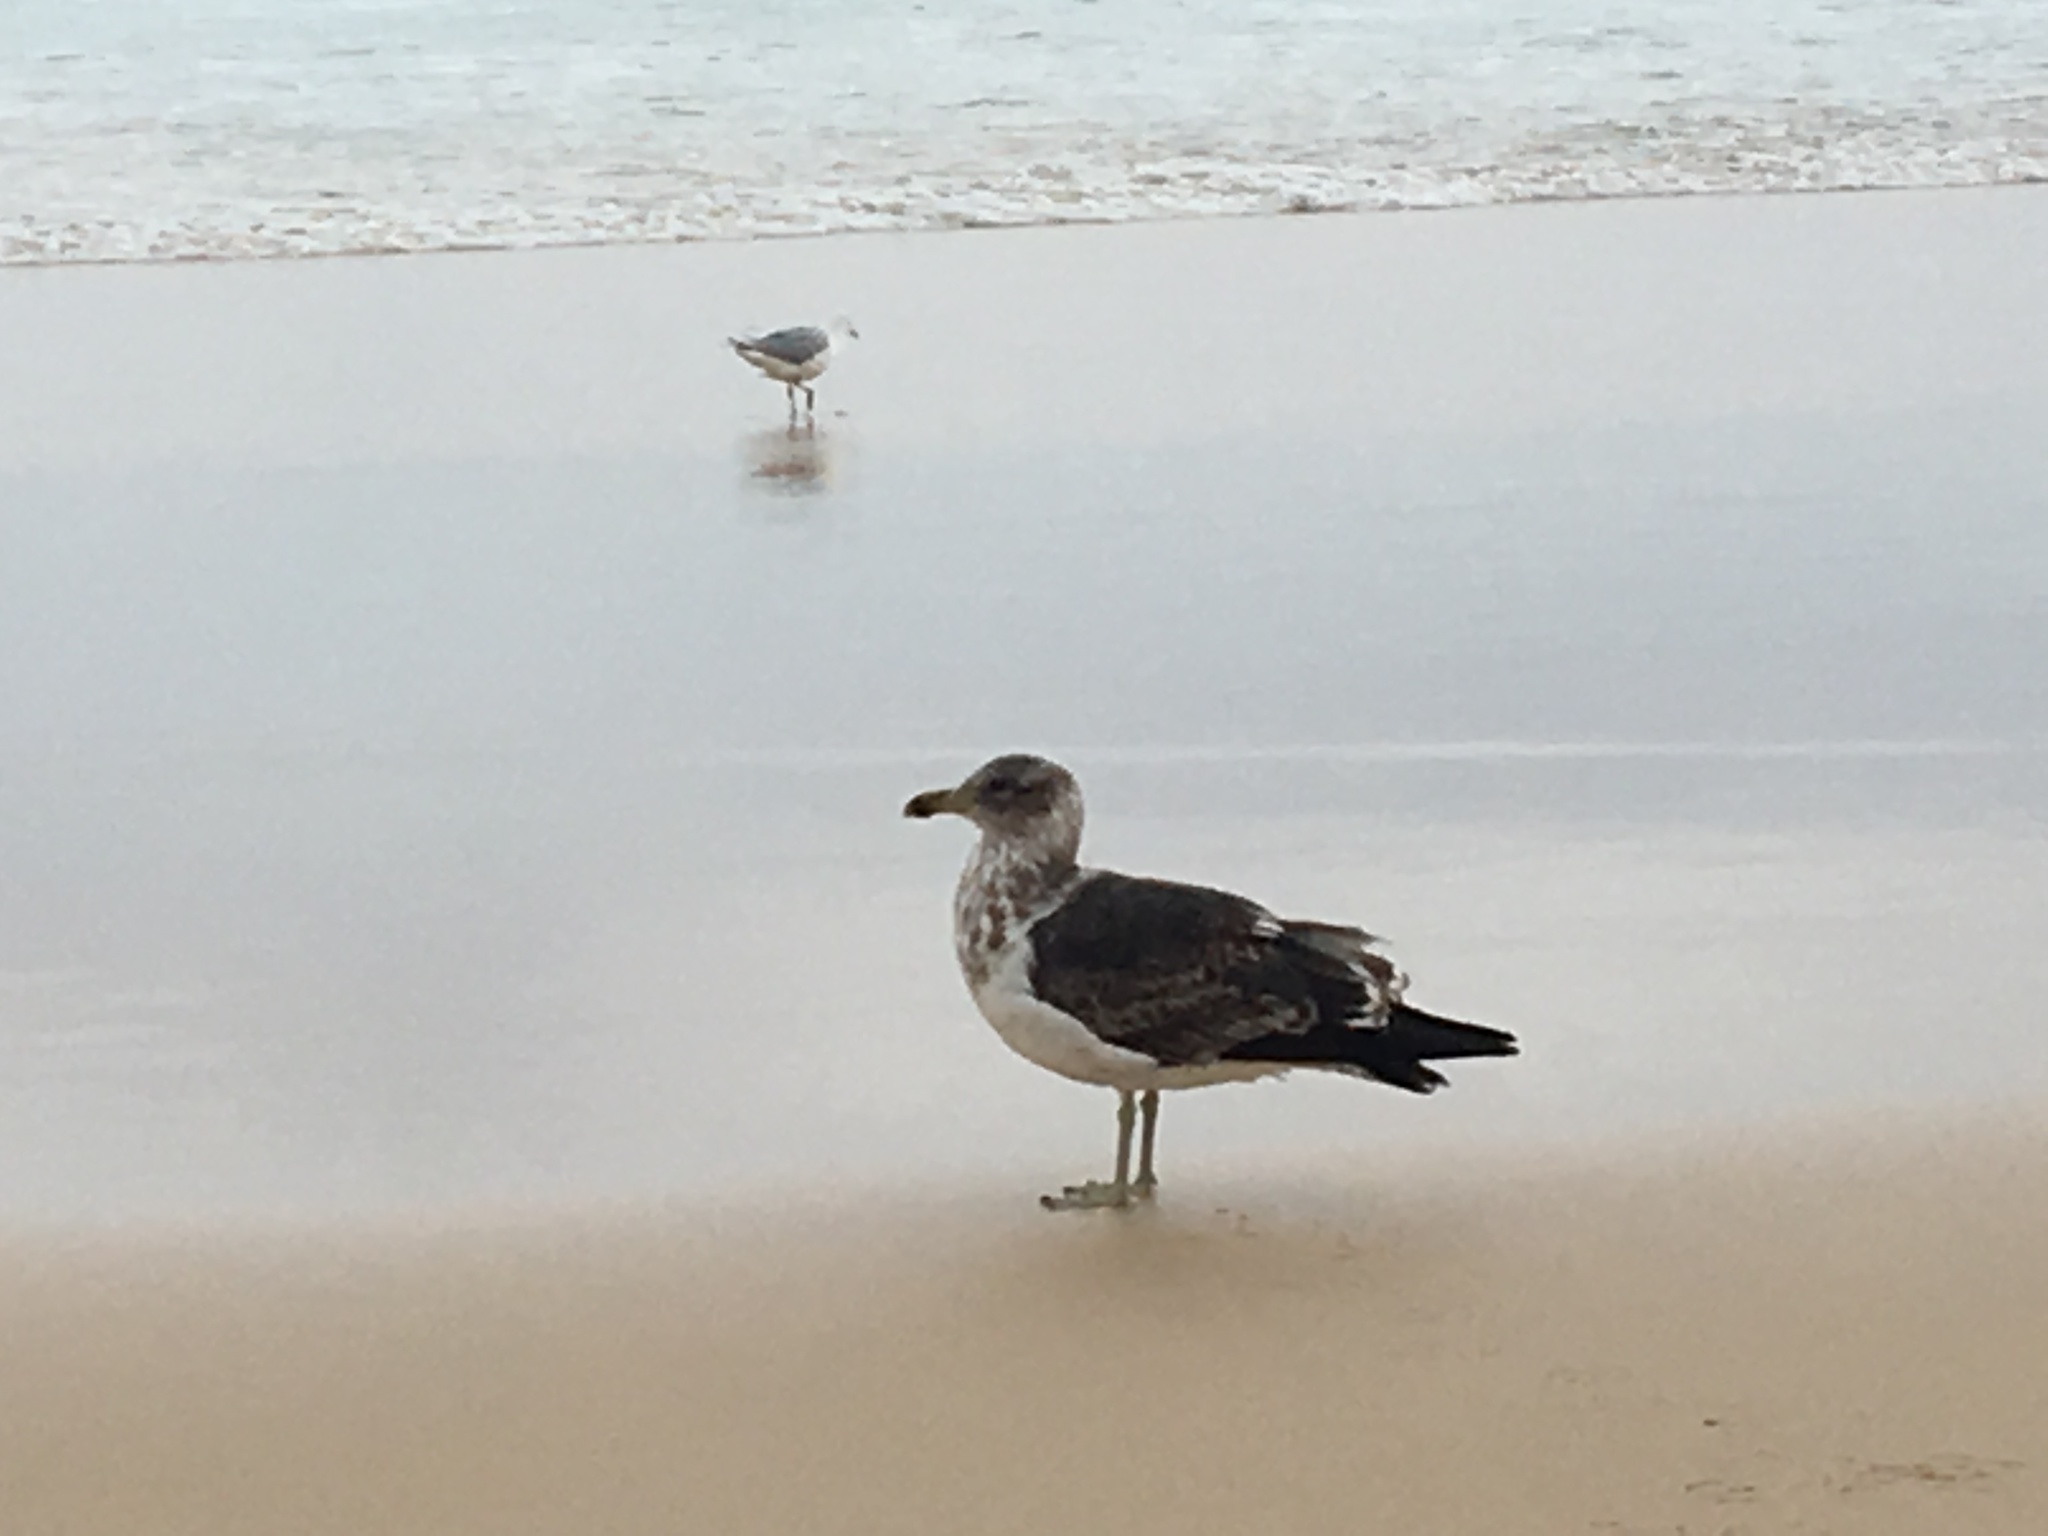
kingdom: Animalia
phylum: Chordata
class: Aves
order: Charadriiformes
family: Laridae
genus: Larus
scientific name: Larus dominicanus
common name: Kelp gull
